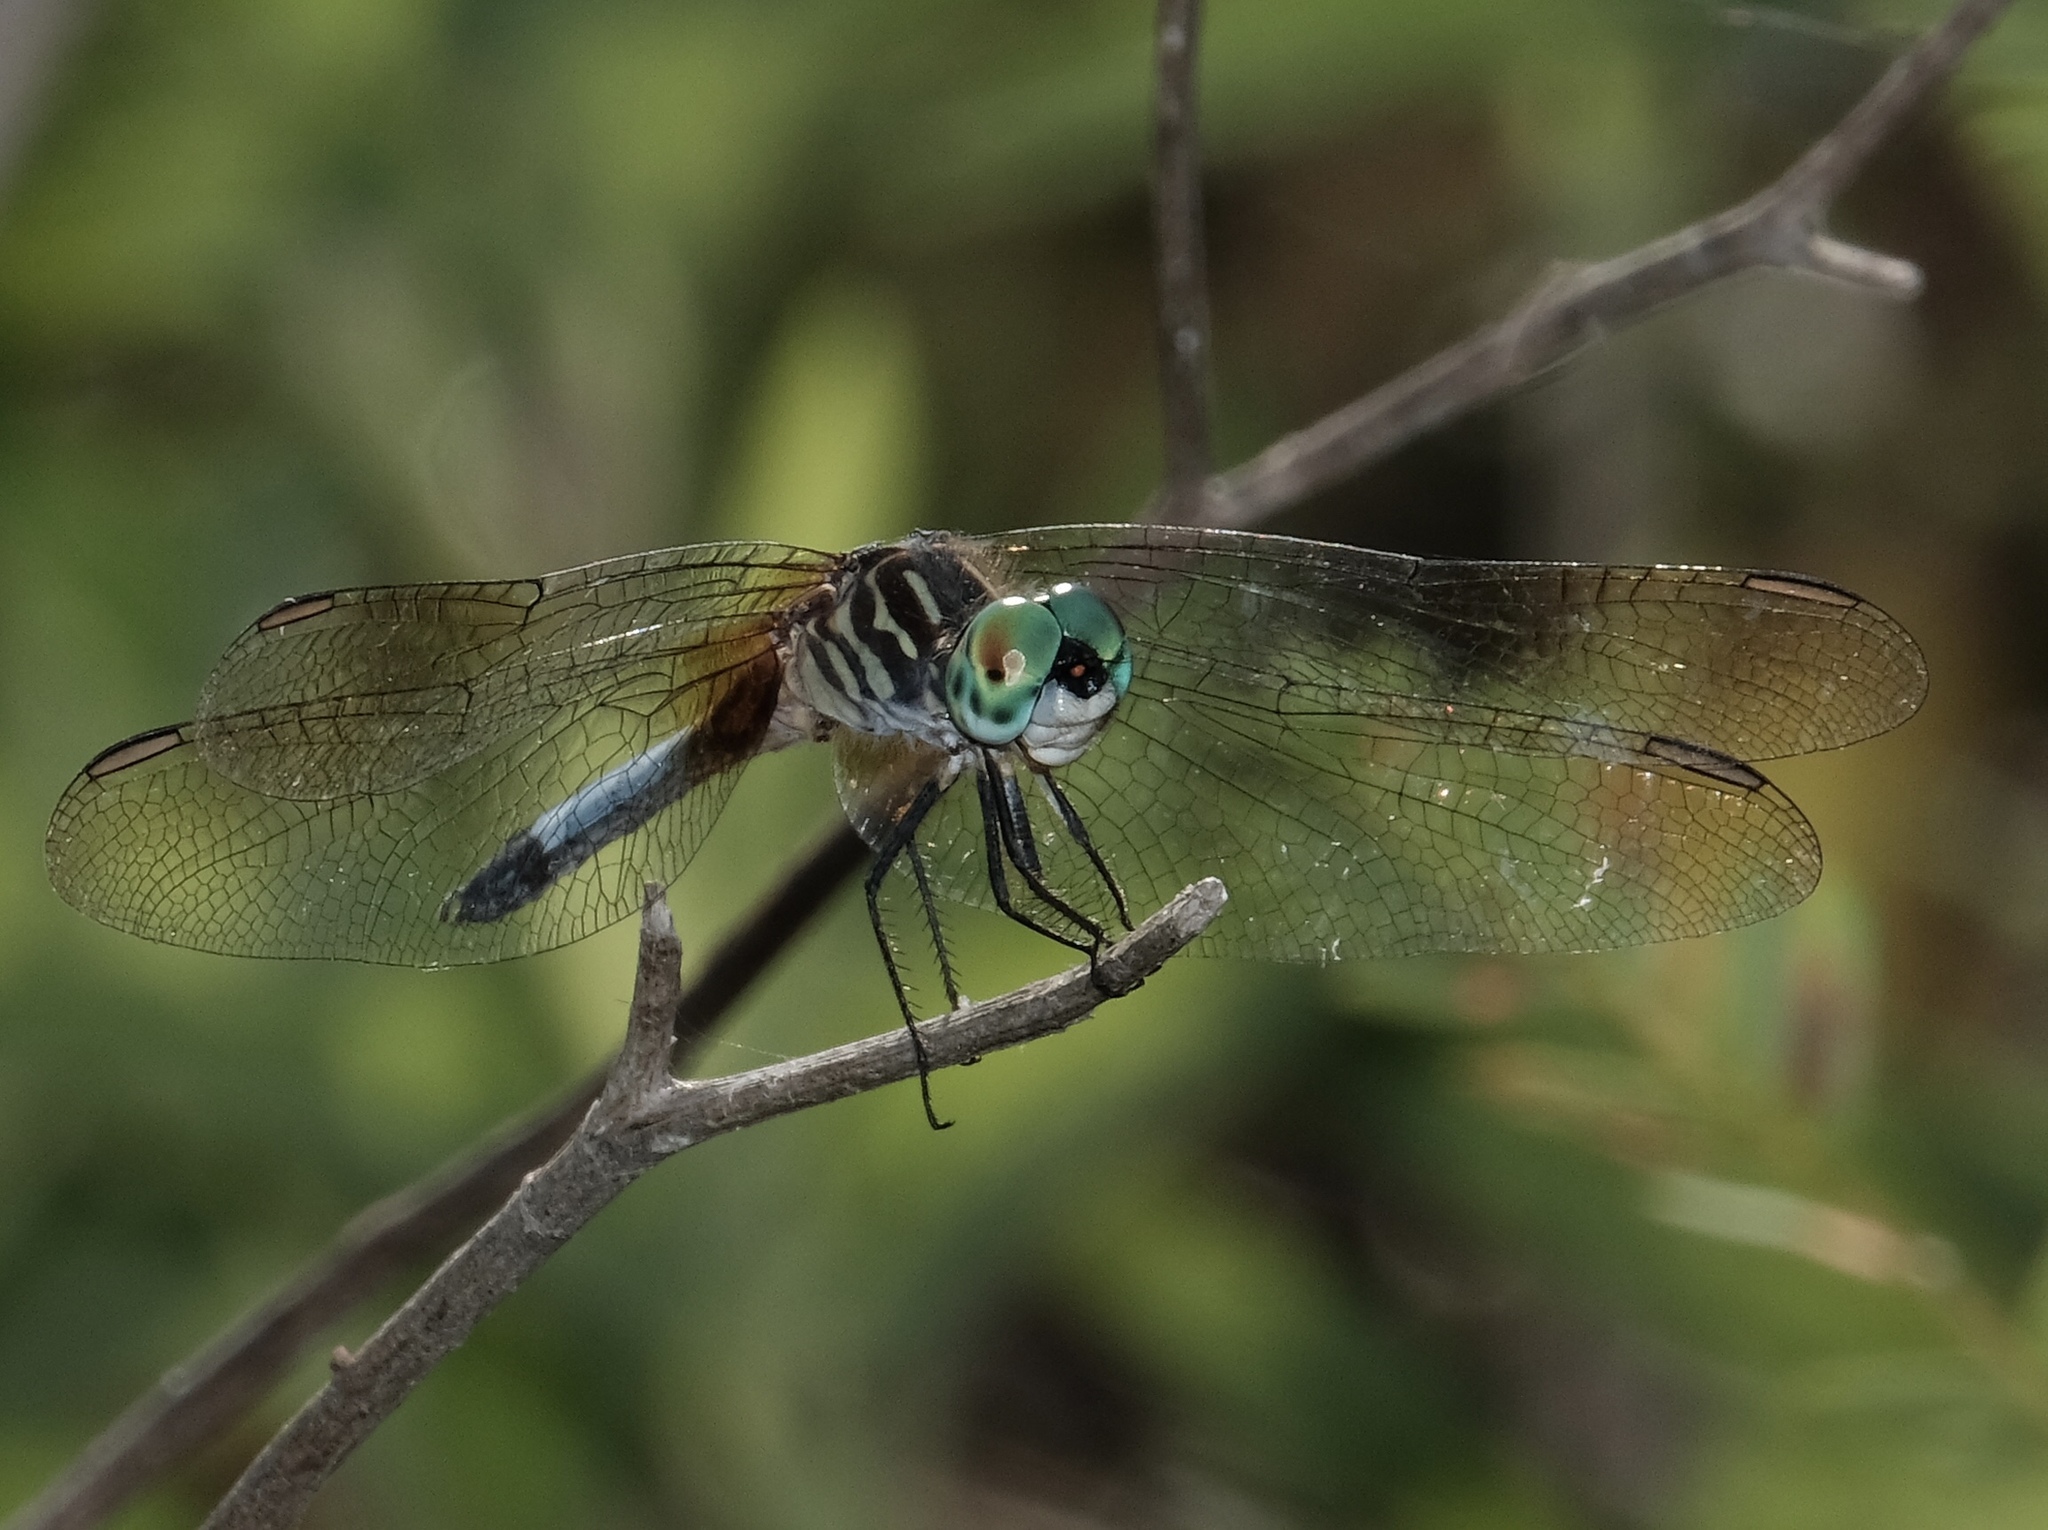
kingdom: Animalia
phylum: Arthropoda
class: Insecta
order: Odonata
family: Libellulidae
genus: Pachydiplax
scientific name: Pachydiplax longipennis
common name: Blue dasher
